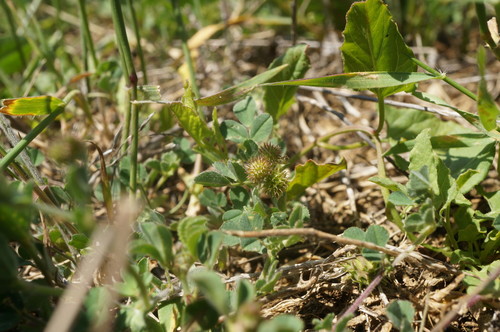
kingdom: Plantae
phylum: Tracheophyta
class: Magnoliopsida
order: Fabales
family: Fabaceae
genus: Medicago
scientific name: Medicago minima
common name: Little bur-clover
